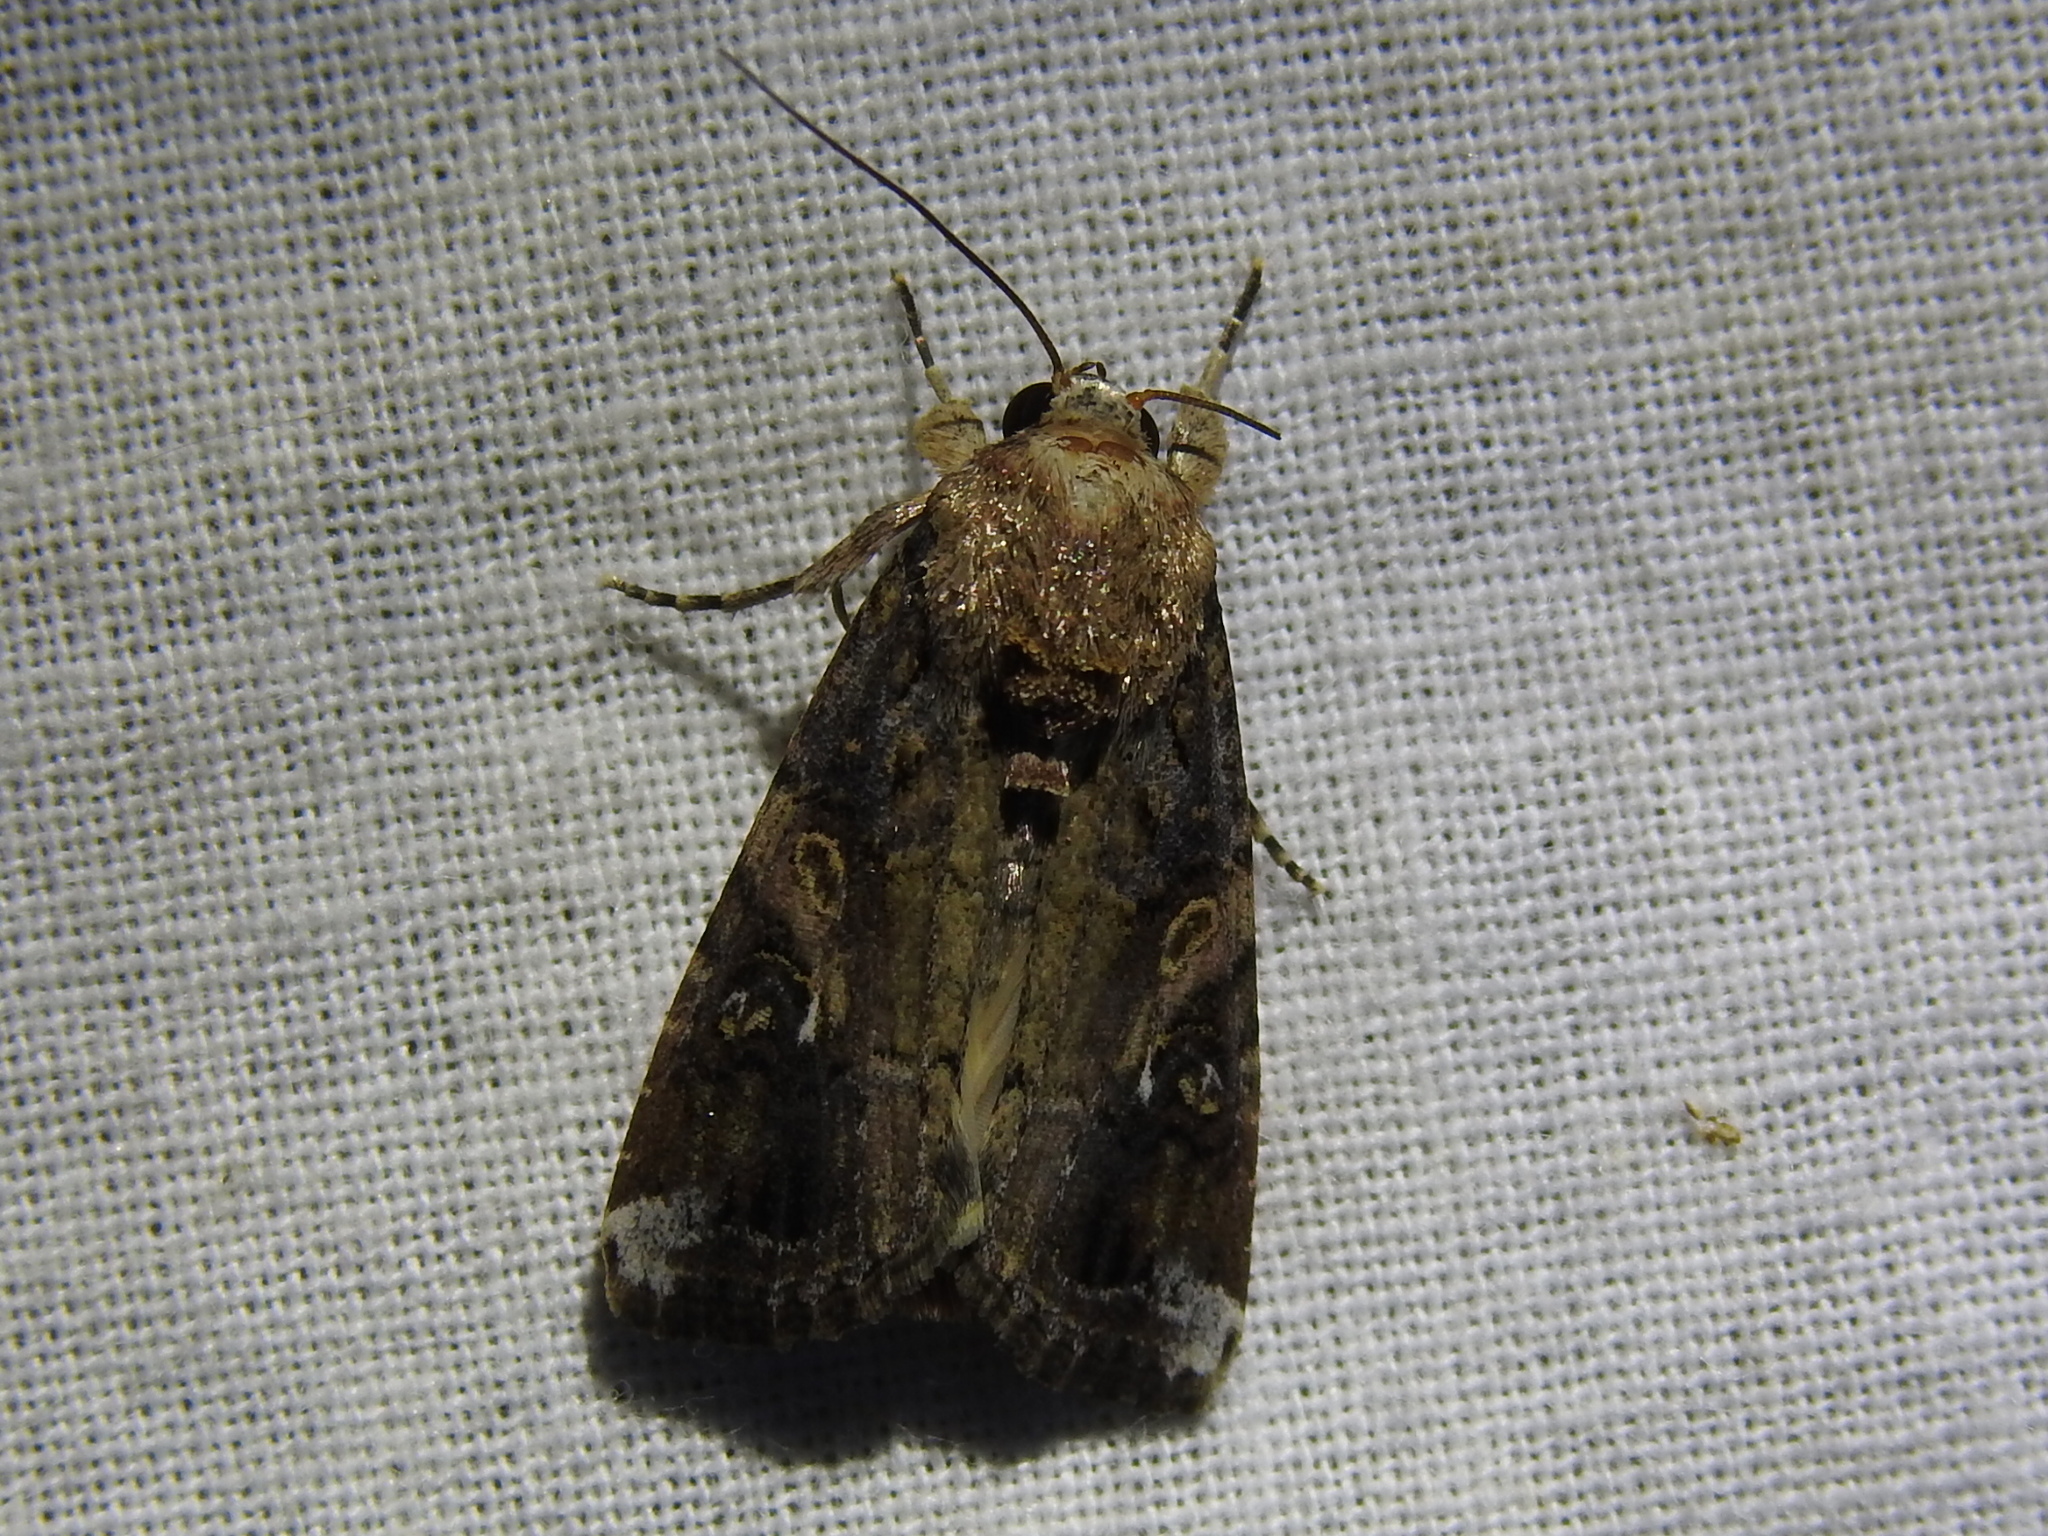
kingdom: Animalia
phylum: Arthropoda
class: Insecta
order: Lepidoptera
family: Noctuidae
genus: Spodoptera
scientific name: Spodoptera frugiperda
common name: Fall armyworm
